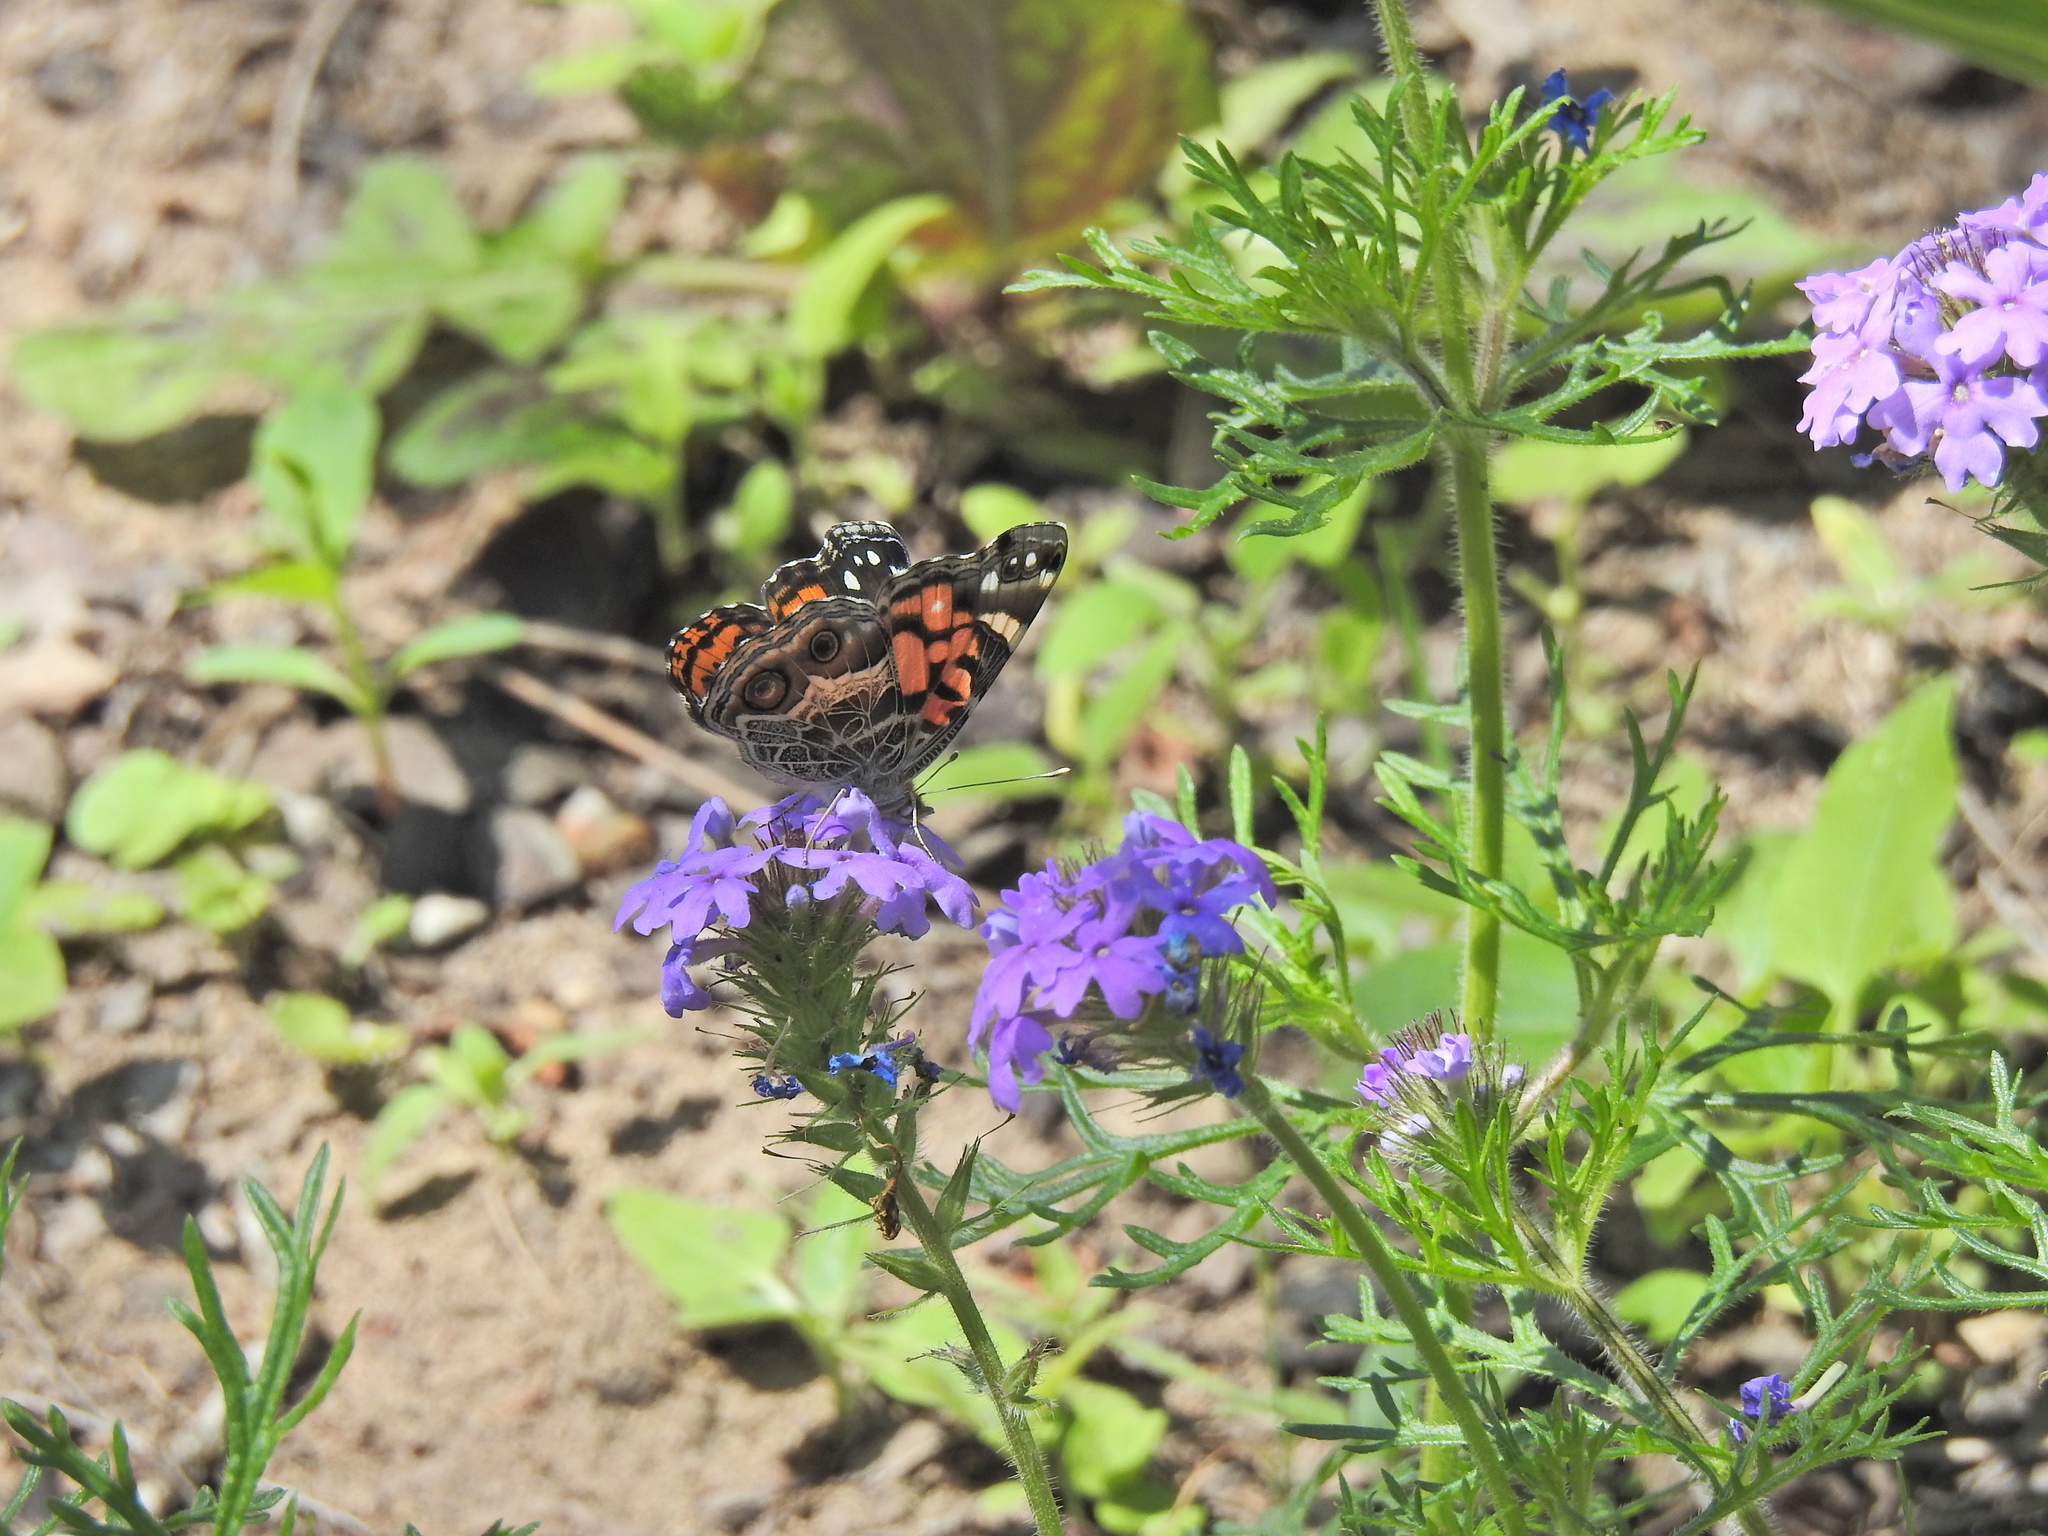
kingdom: Animalia
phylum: Arthropoda
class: Insecta
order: Lepidoptera
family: Nymphalidae
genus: Vanessa
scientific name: Vanessa virginiensis
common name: American lady
